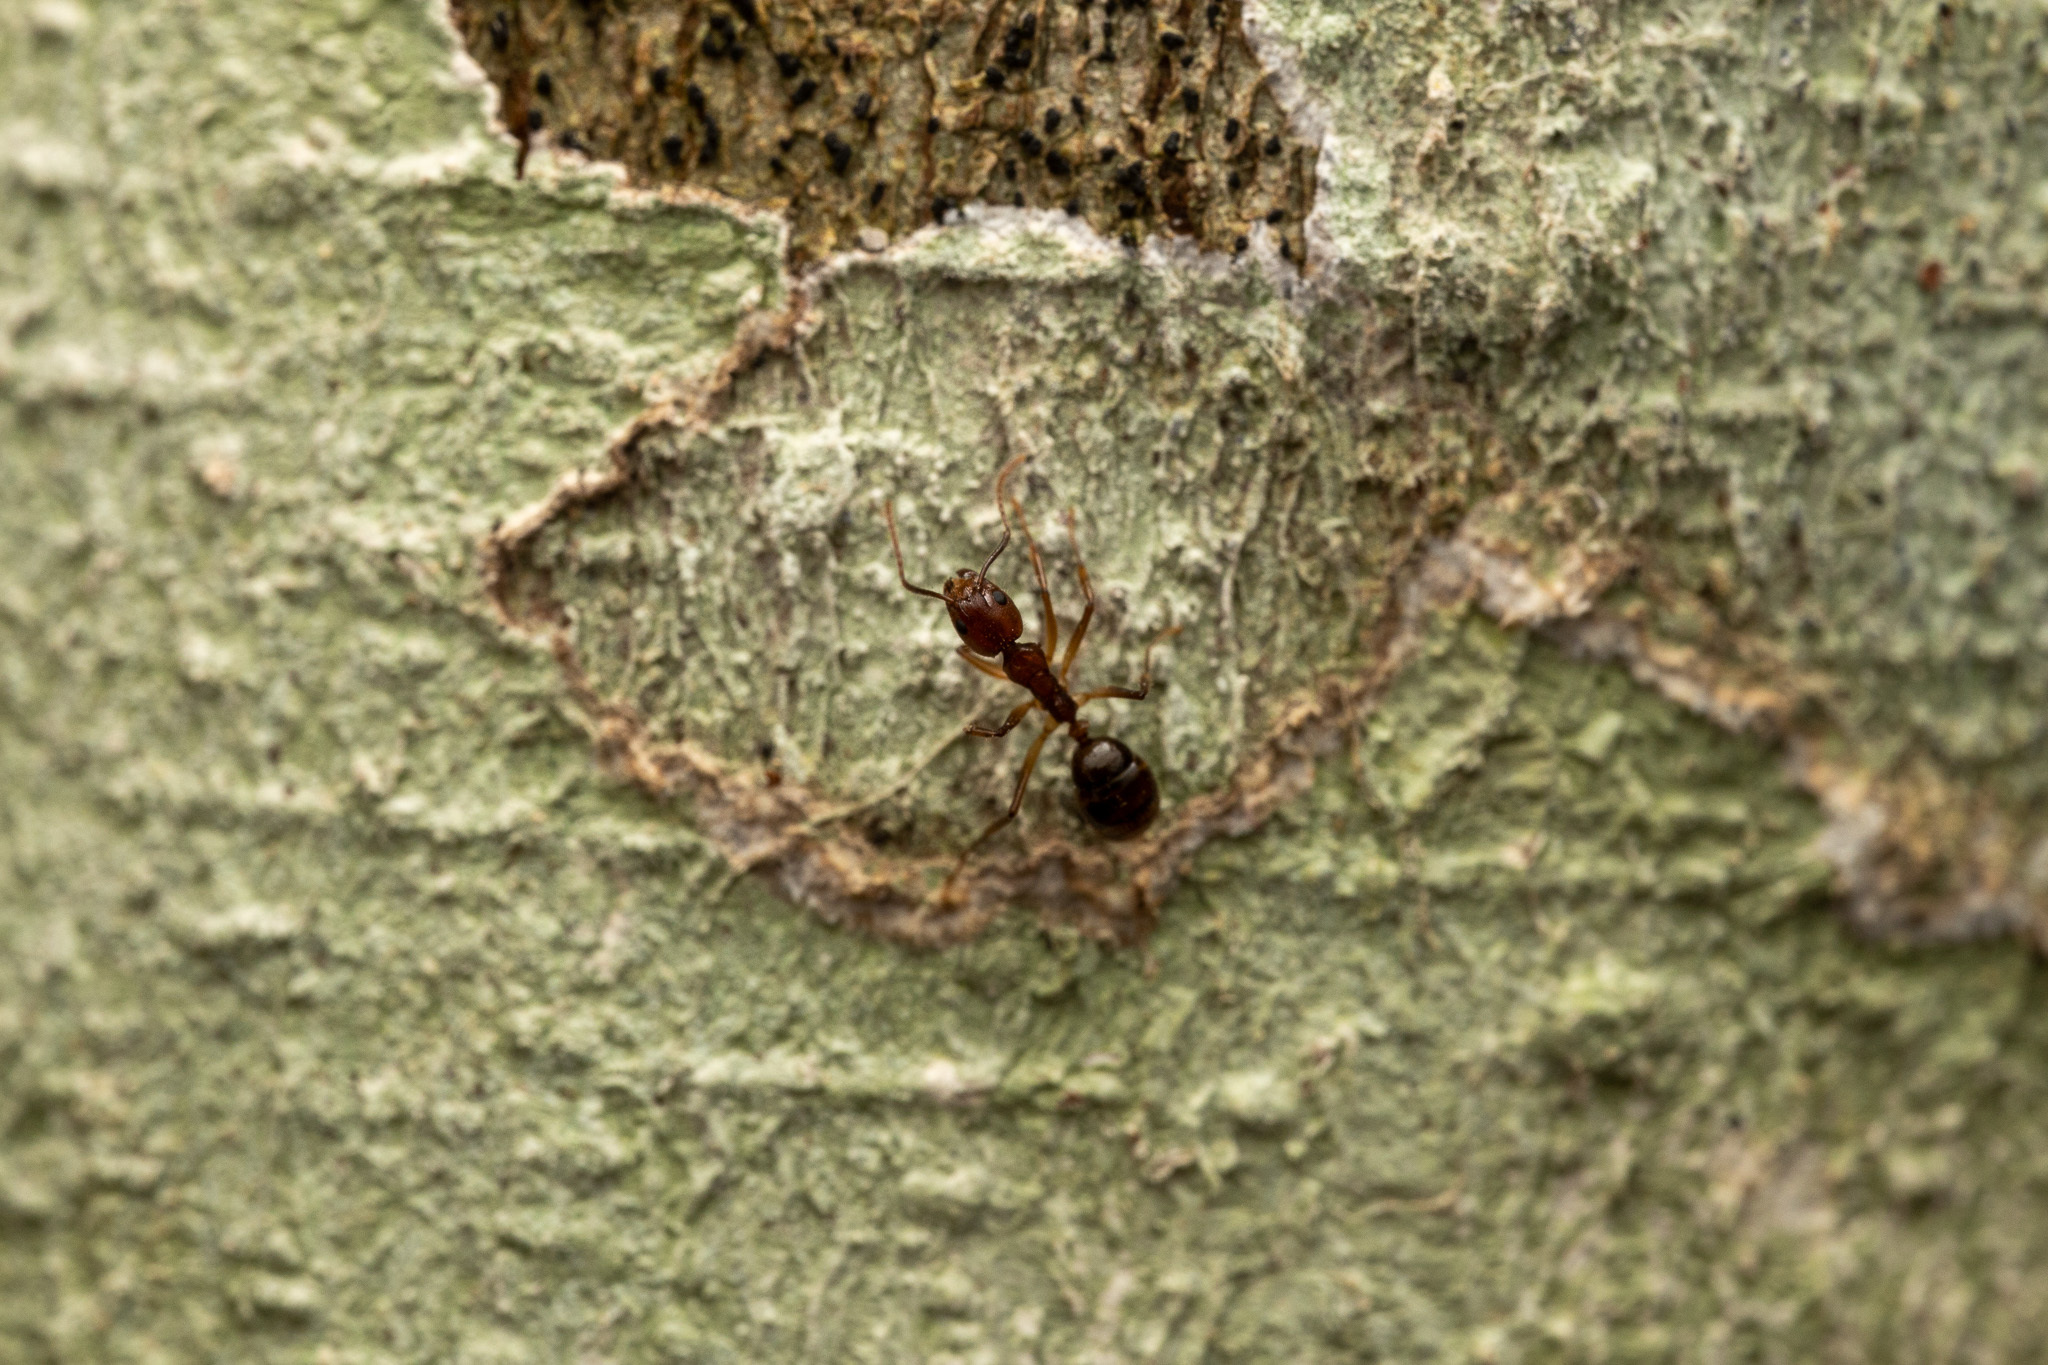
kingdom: Animalia
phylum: Arthropoda
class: Insecta
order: Hymenoptera
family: Formicidae
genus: Dolichoderus
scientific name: Dolichoderus diversus
